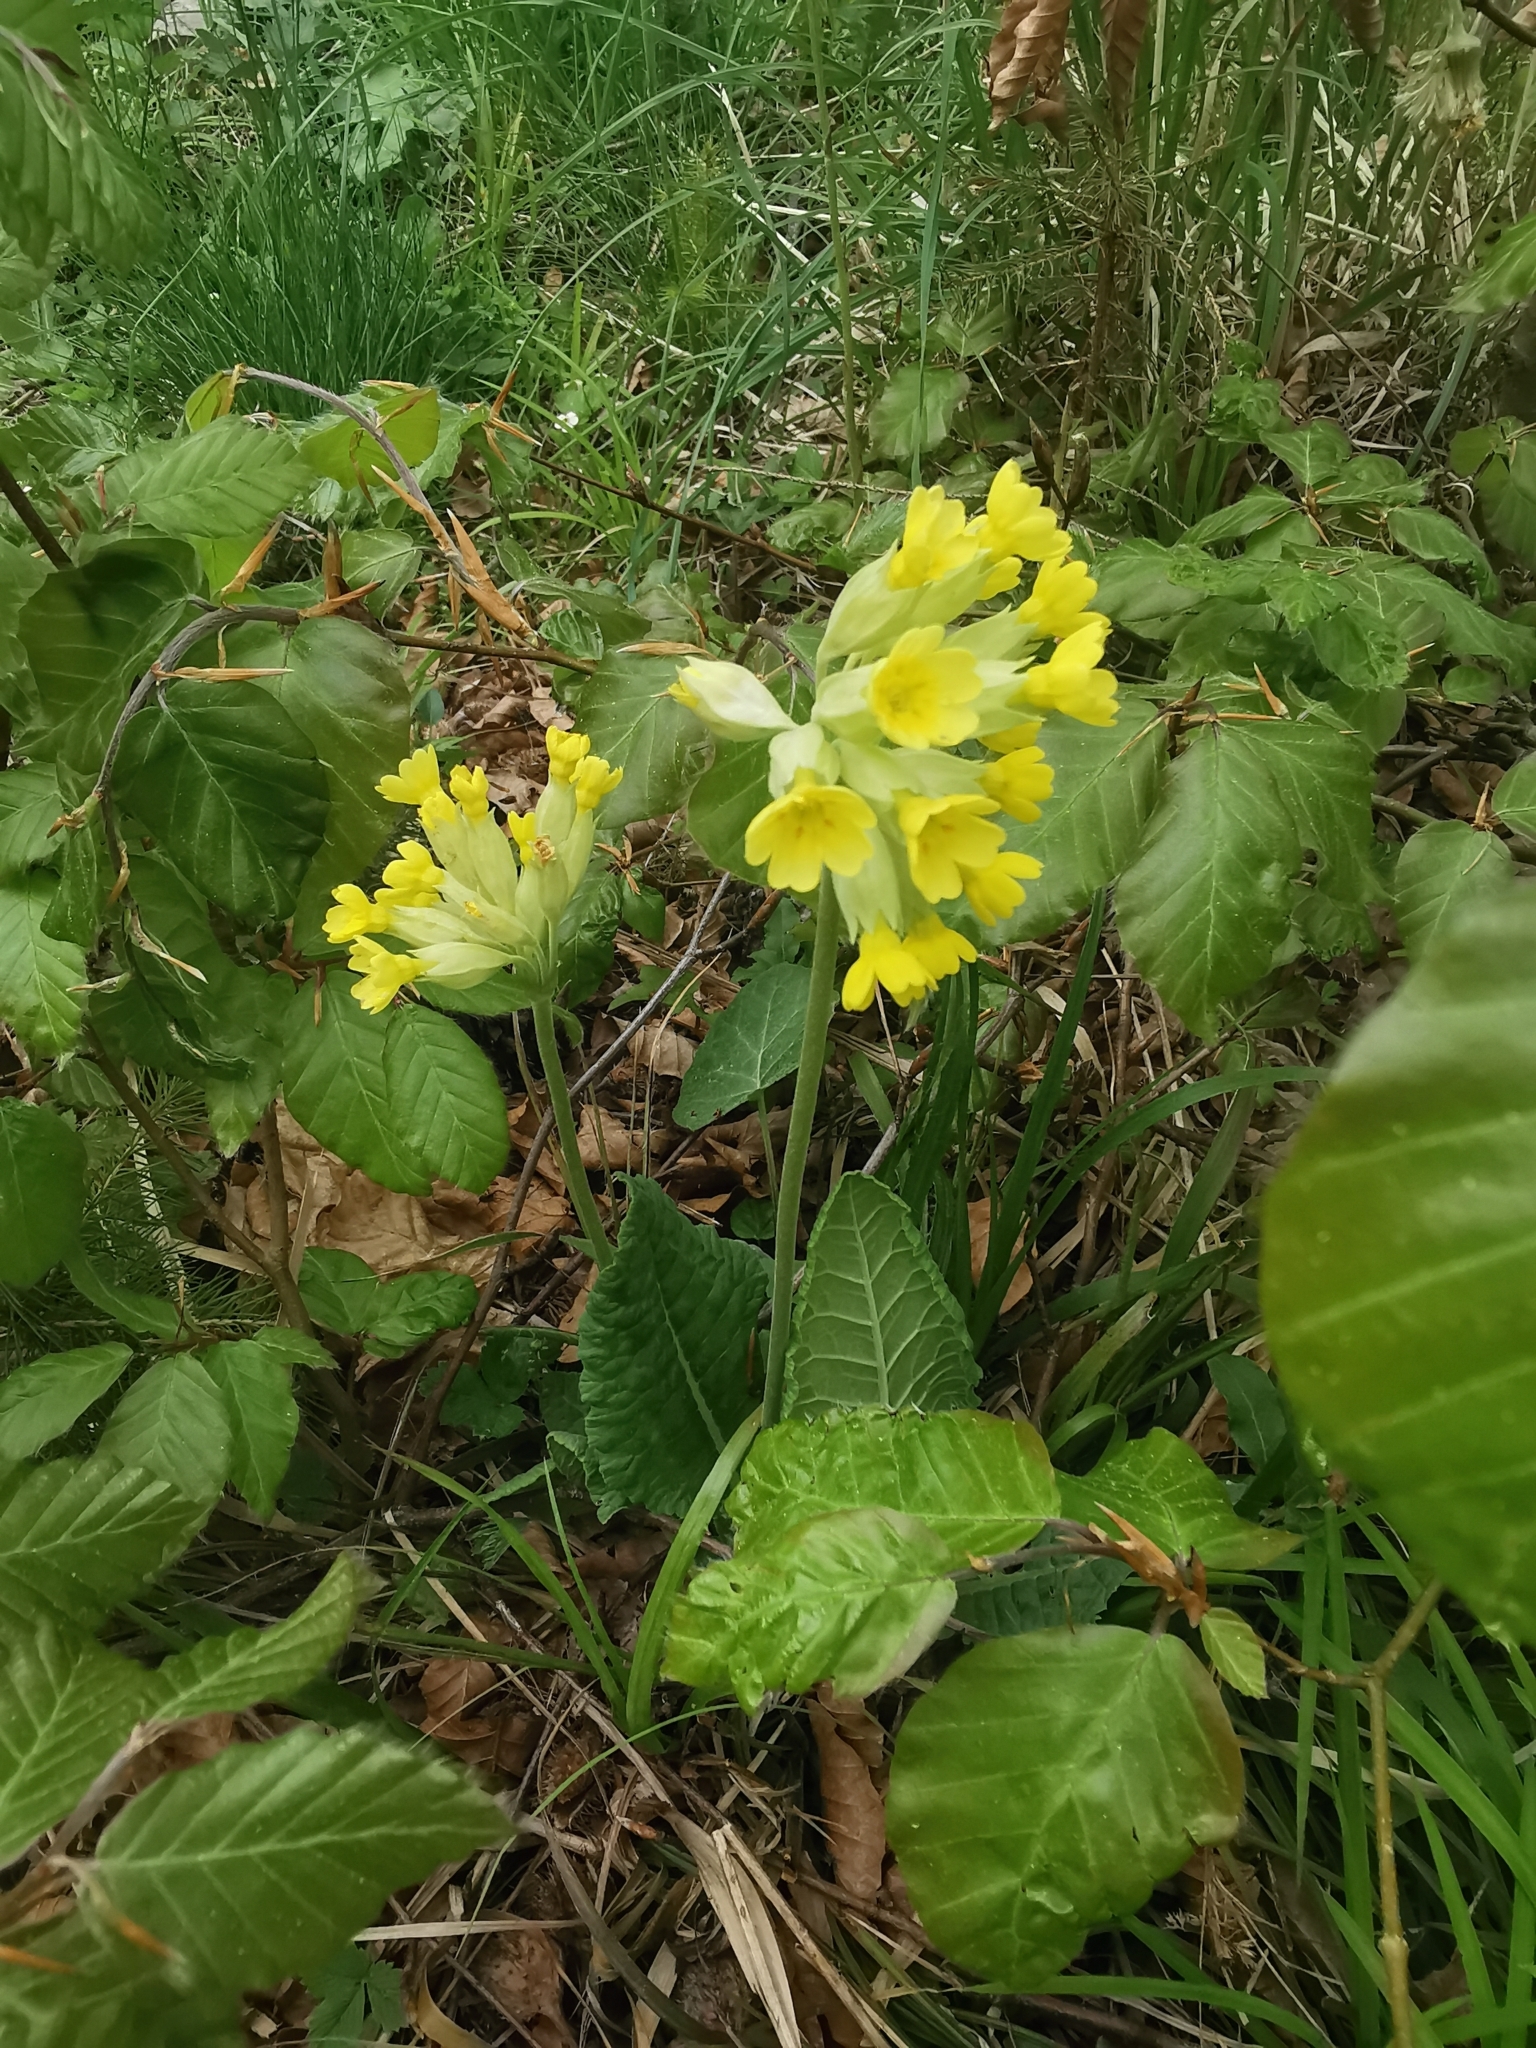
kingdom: Plantae
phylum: Tracheophyta
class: Magnoliopsida
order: Ericales
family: Primulaceae
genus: Primula
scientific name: Primula veris
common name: Cowslip
